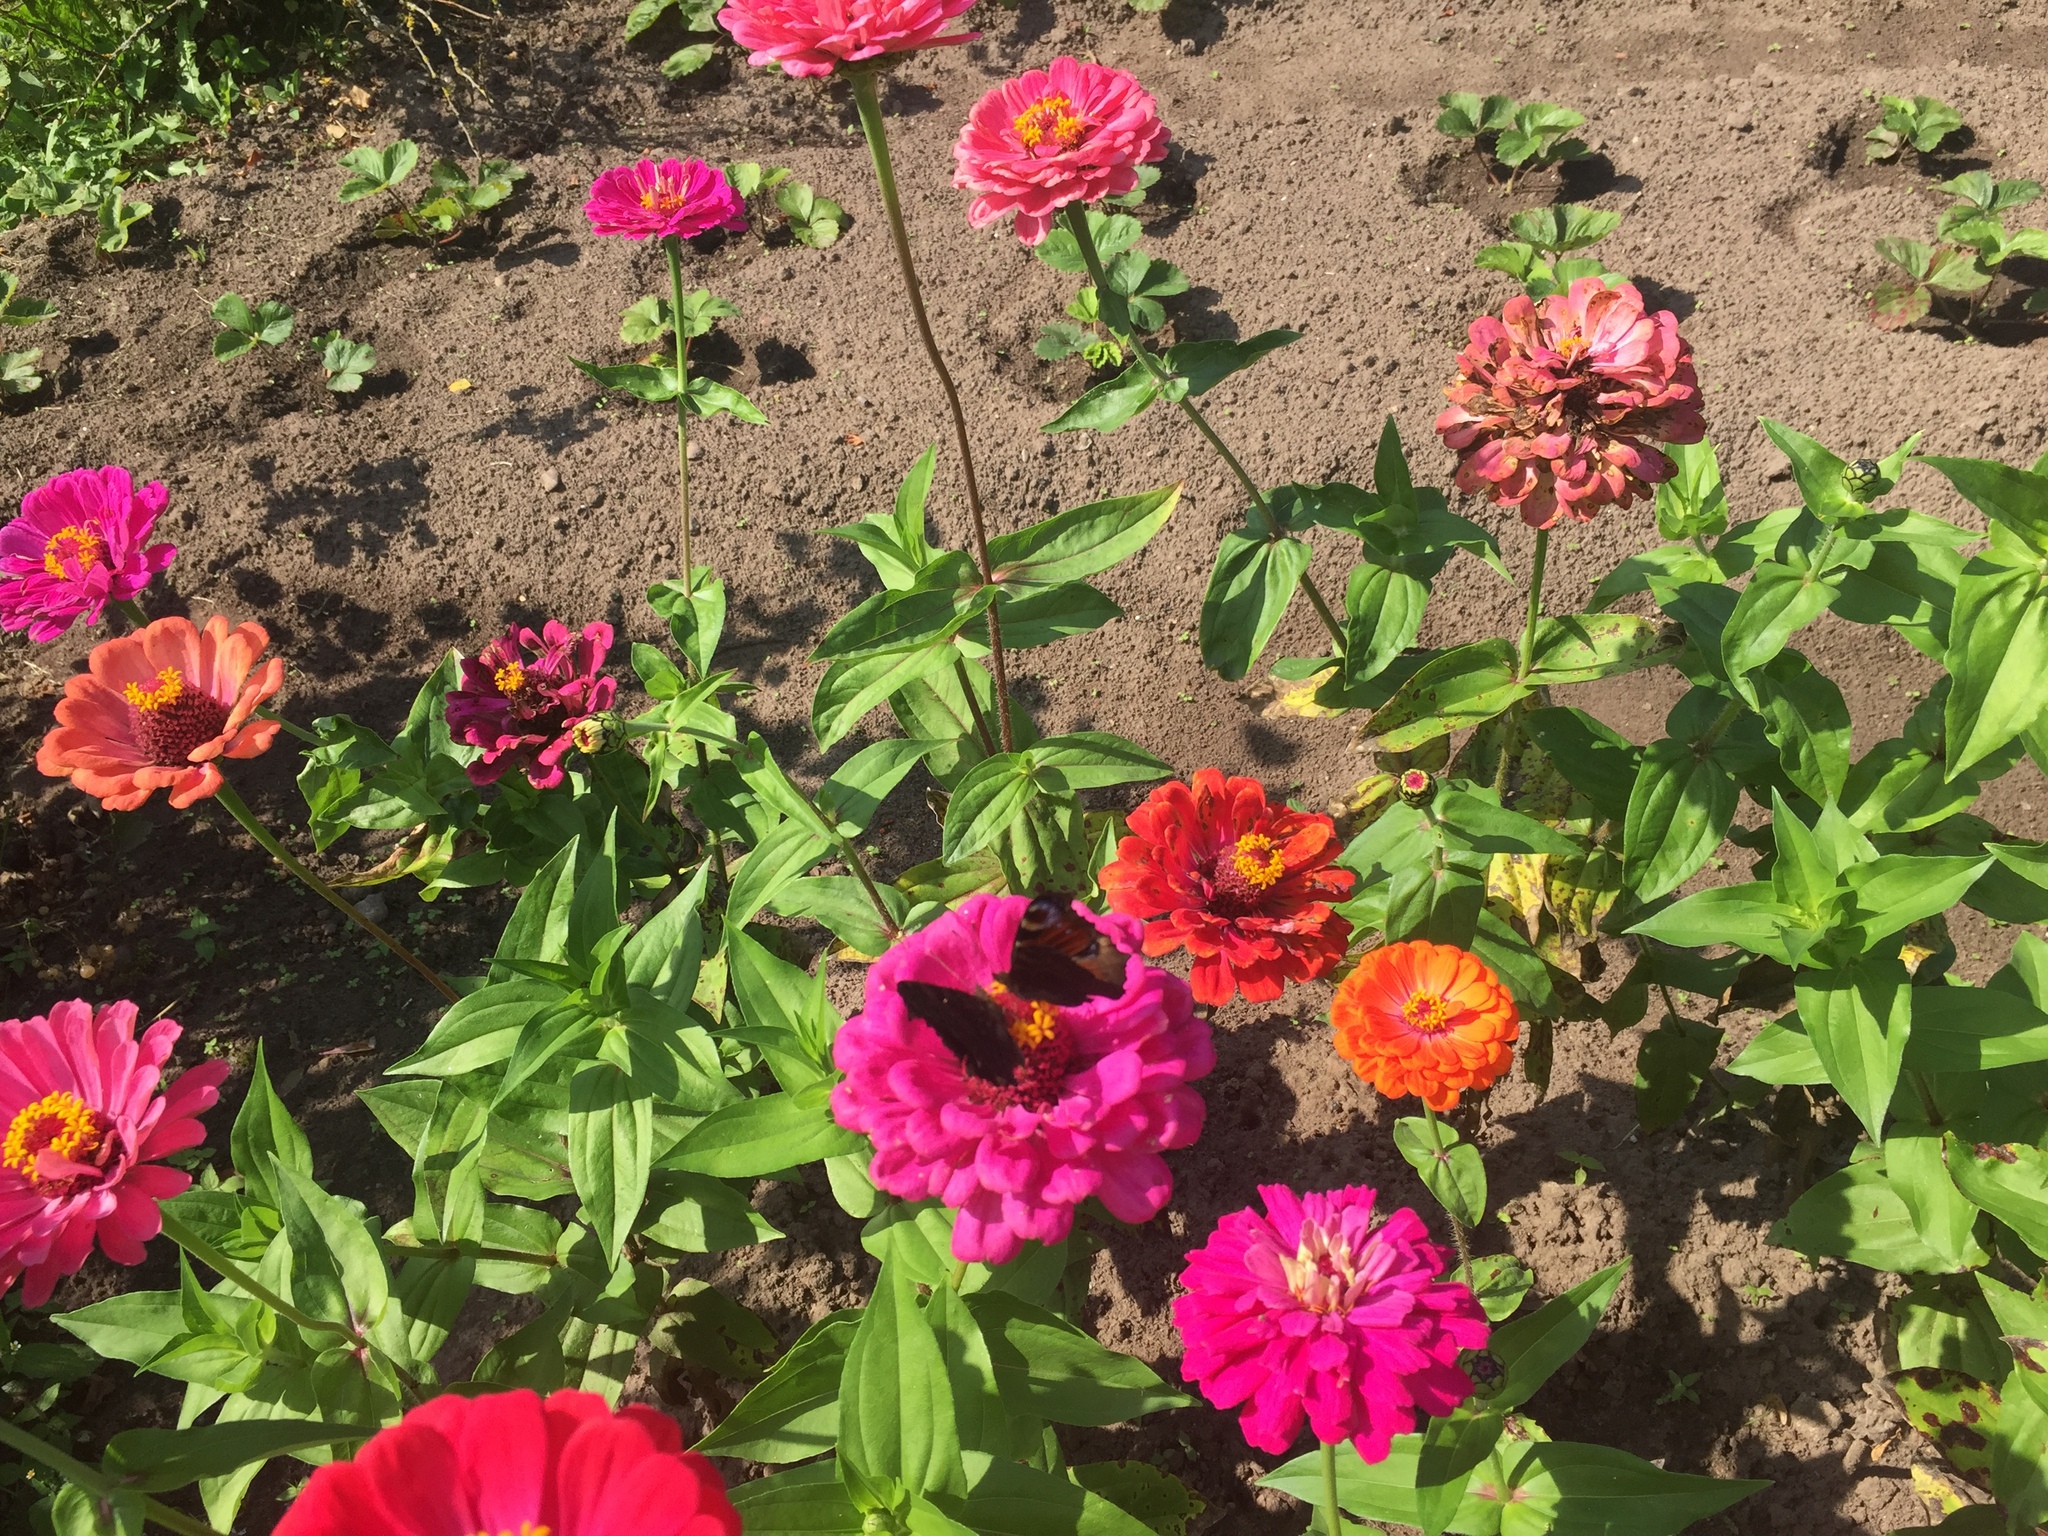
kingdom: Animalia
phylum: Arthropoda
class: Insecta
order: Lepidoptera
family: Nymphalidae
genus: Aglais
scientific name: Aglais io
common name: Peacock
